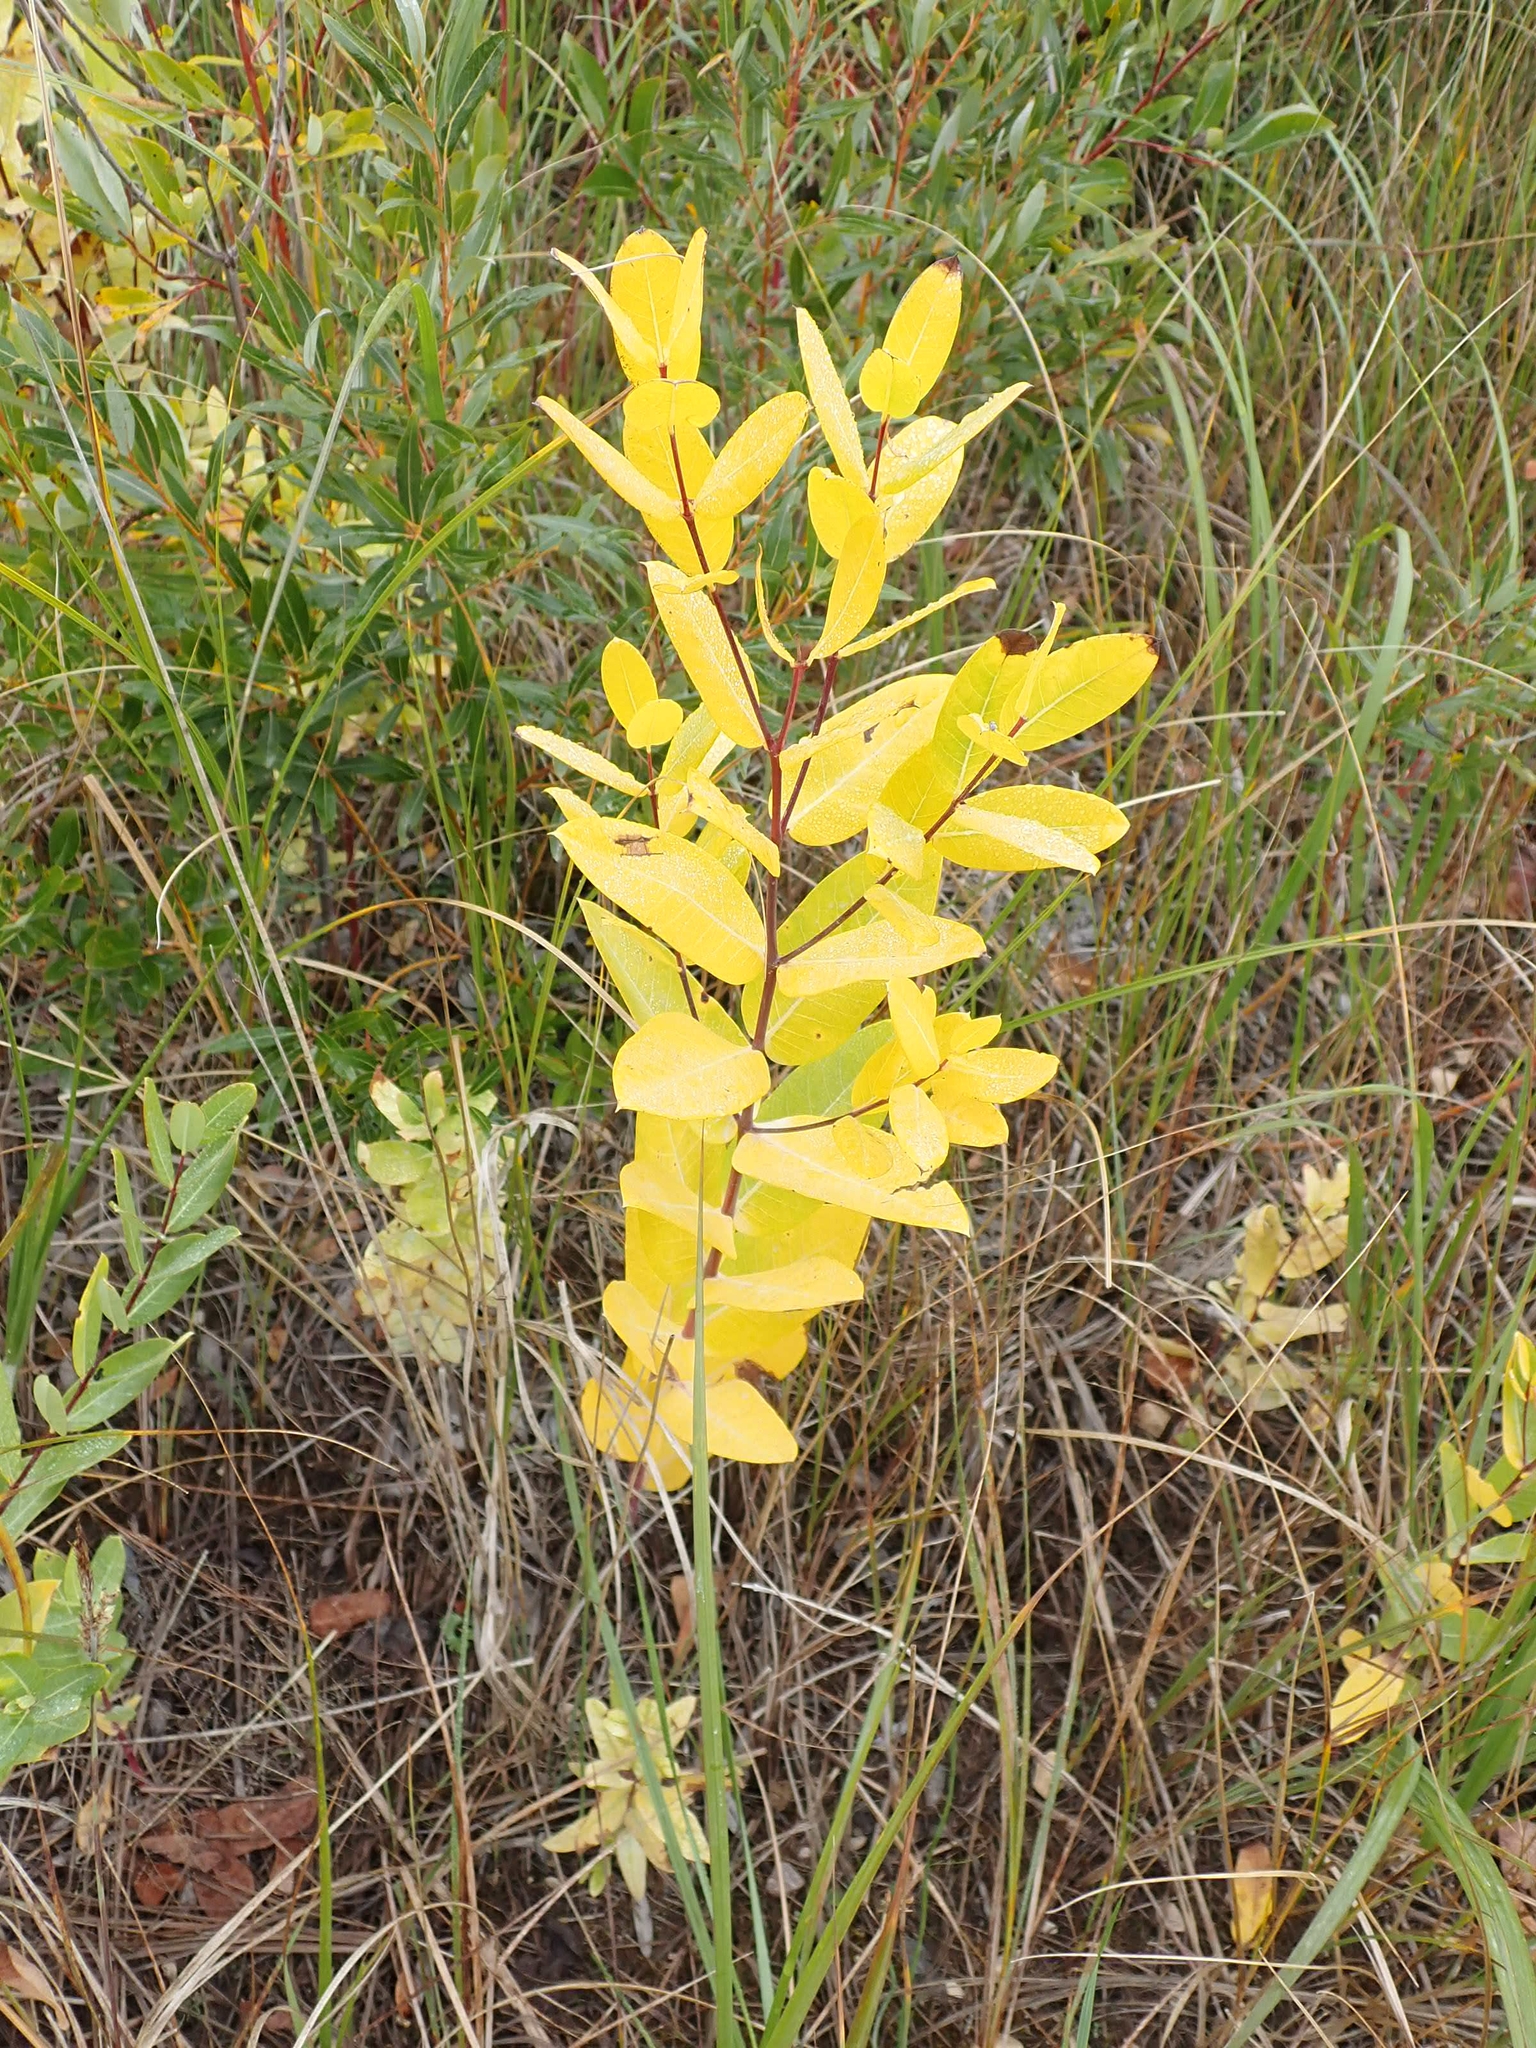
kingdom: Plantae
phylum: Tracheophyta
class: Magnoliopsida
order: Gentianales
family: Apocynaceae
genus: Apocynum
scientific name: Apocynum cannabinum
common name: Hemp dogbane
